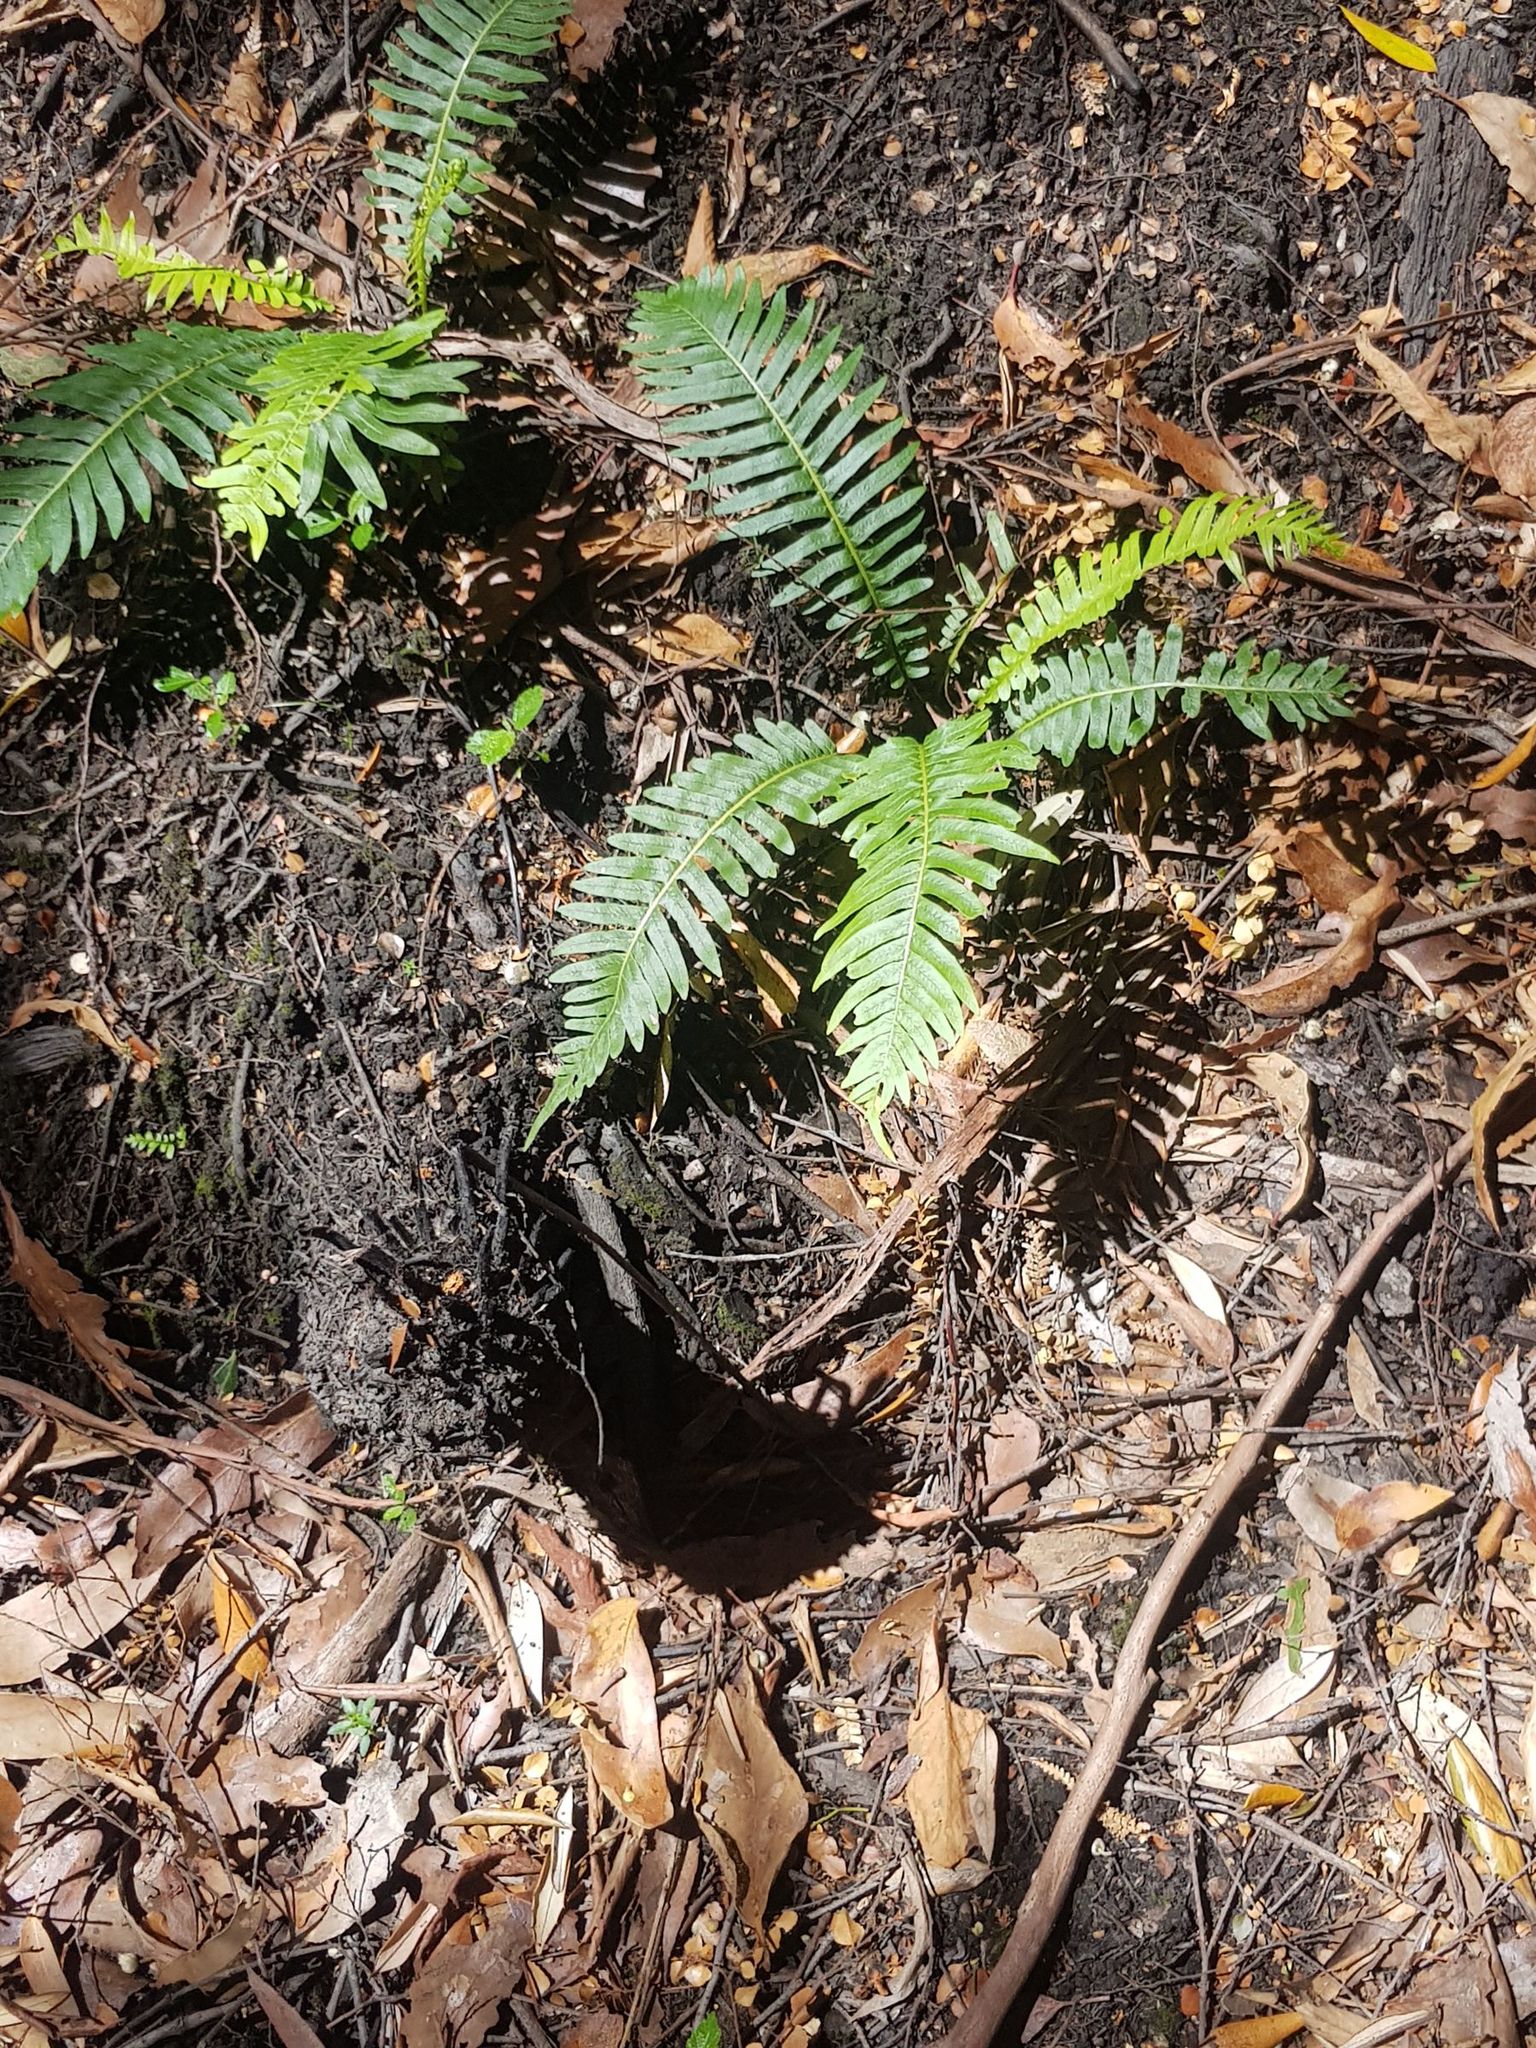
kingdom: Plantae
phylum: Tracheophyta
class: Polypodiopsida
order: Polypodiales
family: Blechnaceae
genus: Lomaria
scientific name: Lomaria nuda
